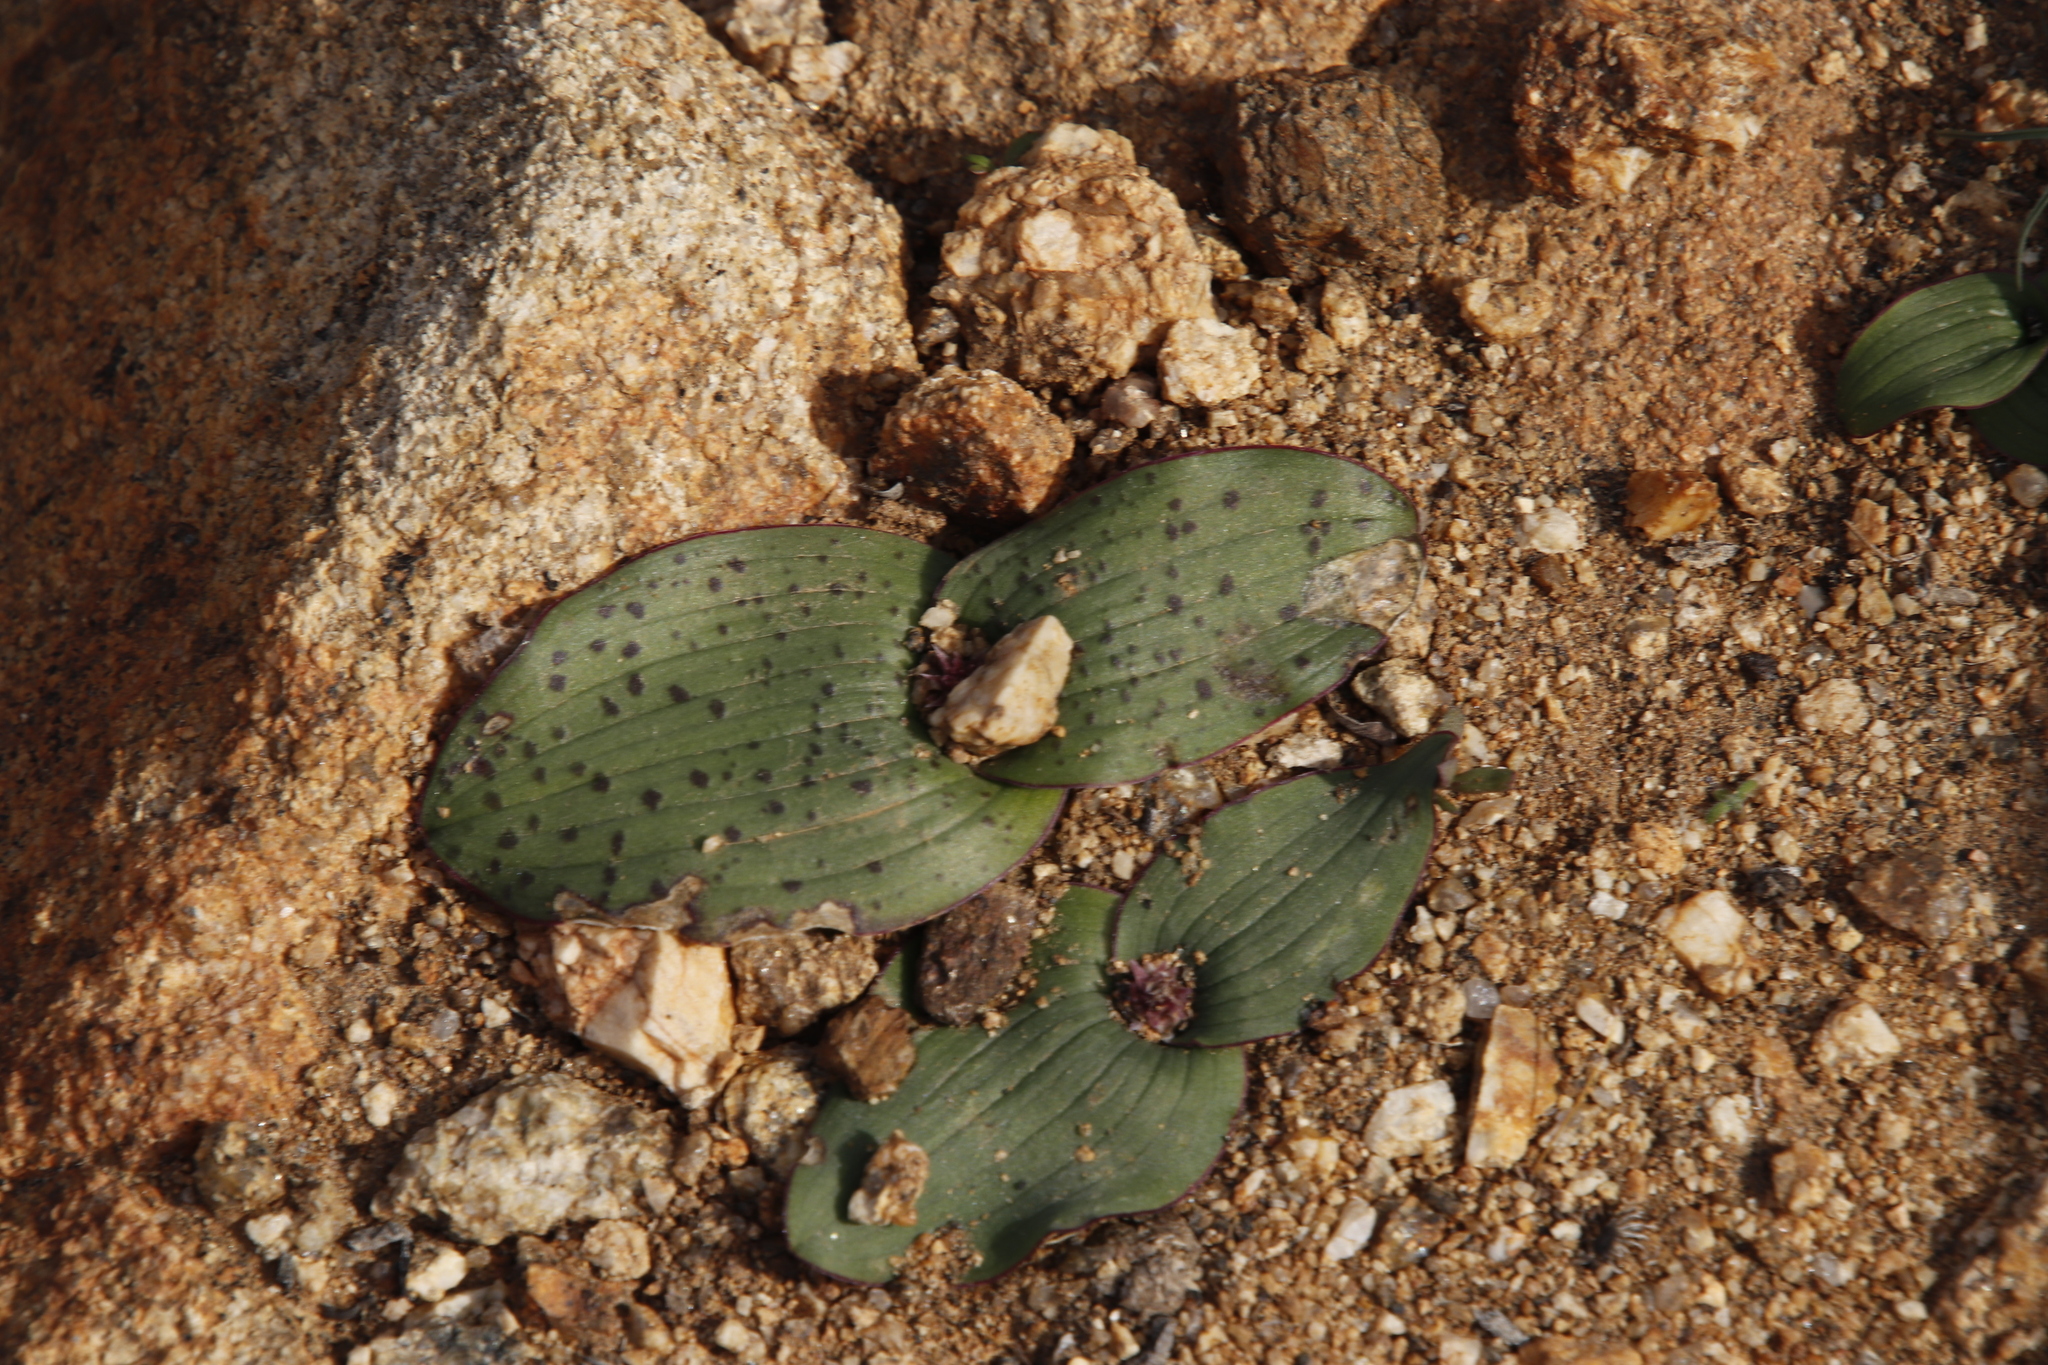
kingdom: Plantae
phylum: Tracheophyta
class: Liliopsida
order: Asparagales
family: Asparagaceae
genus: Lachenalia
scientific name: Lachenalia carnosa
